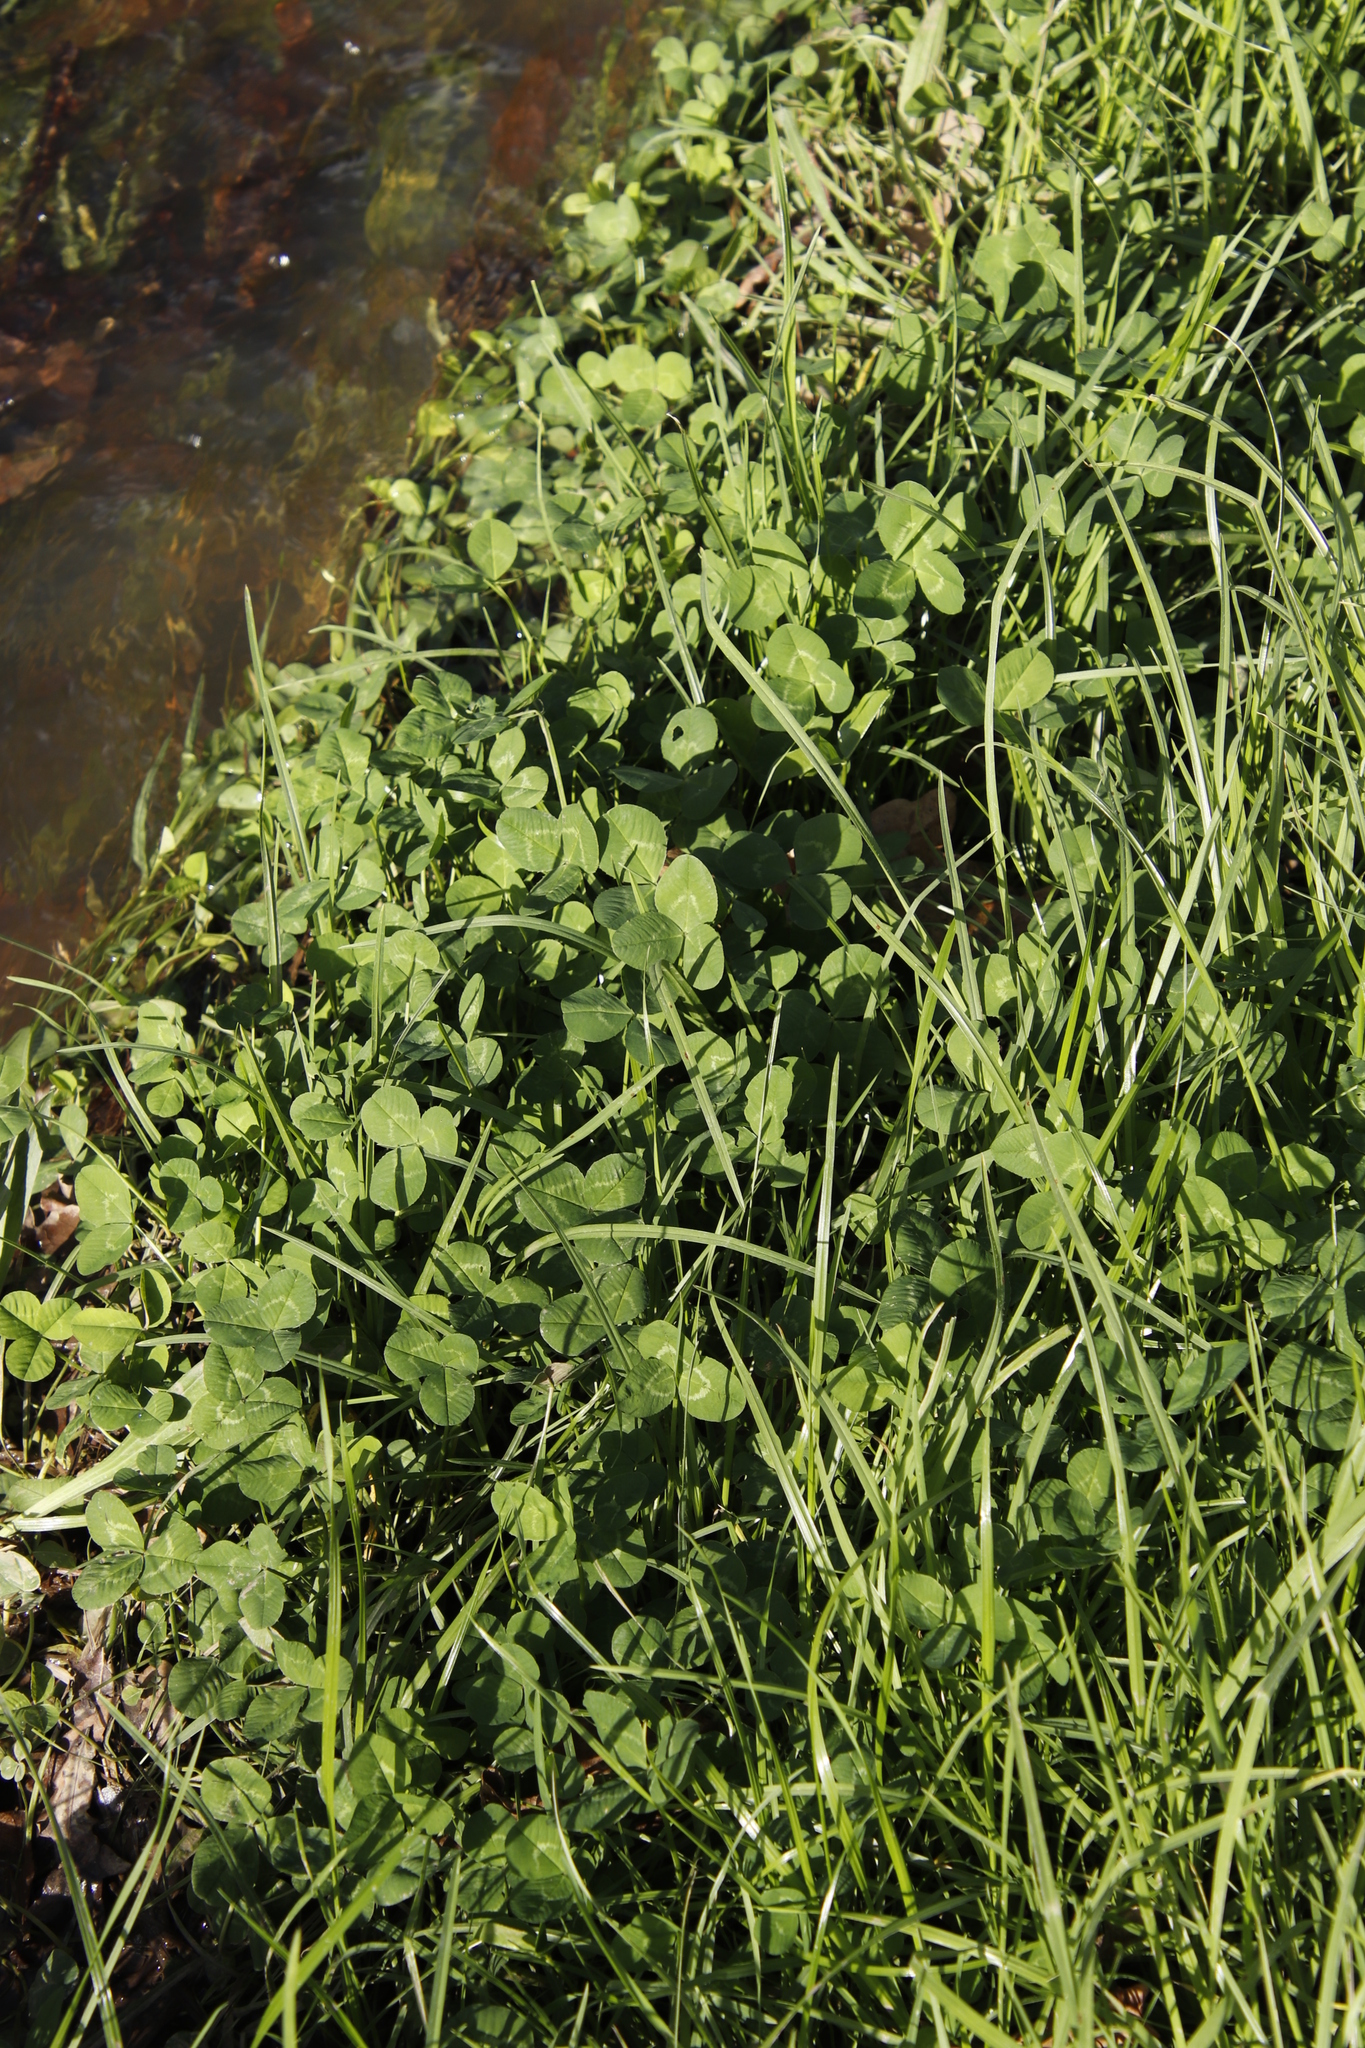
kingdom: Plantae
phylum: Tracheophyta
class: Magnoliopsida
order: Fabales
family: Fabaceae
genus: Trifolium
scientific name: Trifolium repens
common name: White clover
